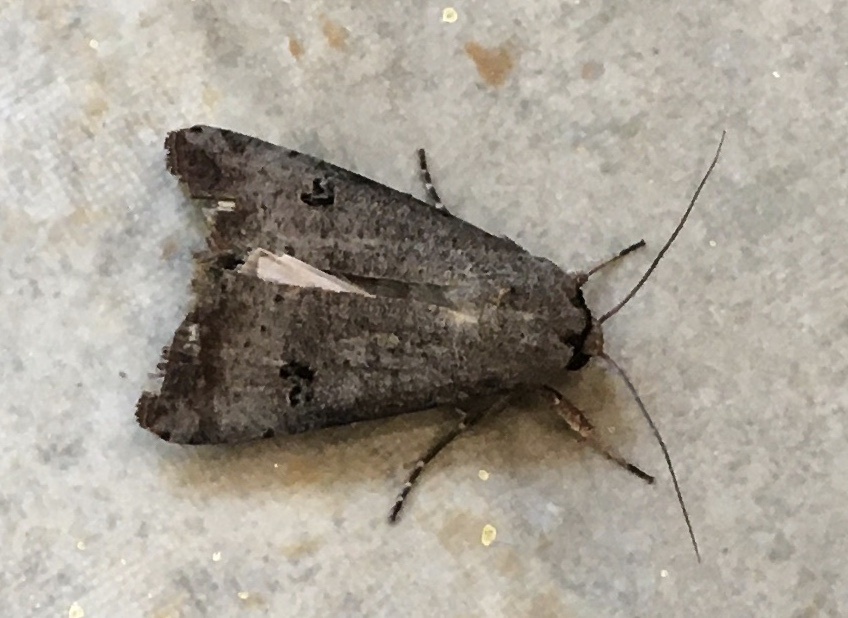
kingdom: Animalia
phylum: Arthropoda
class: Insecta
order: Lepidoptera
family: Noctuidae
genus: Anicla
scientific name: Anicla infecta
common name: Green cutworm
